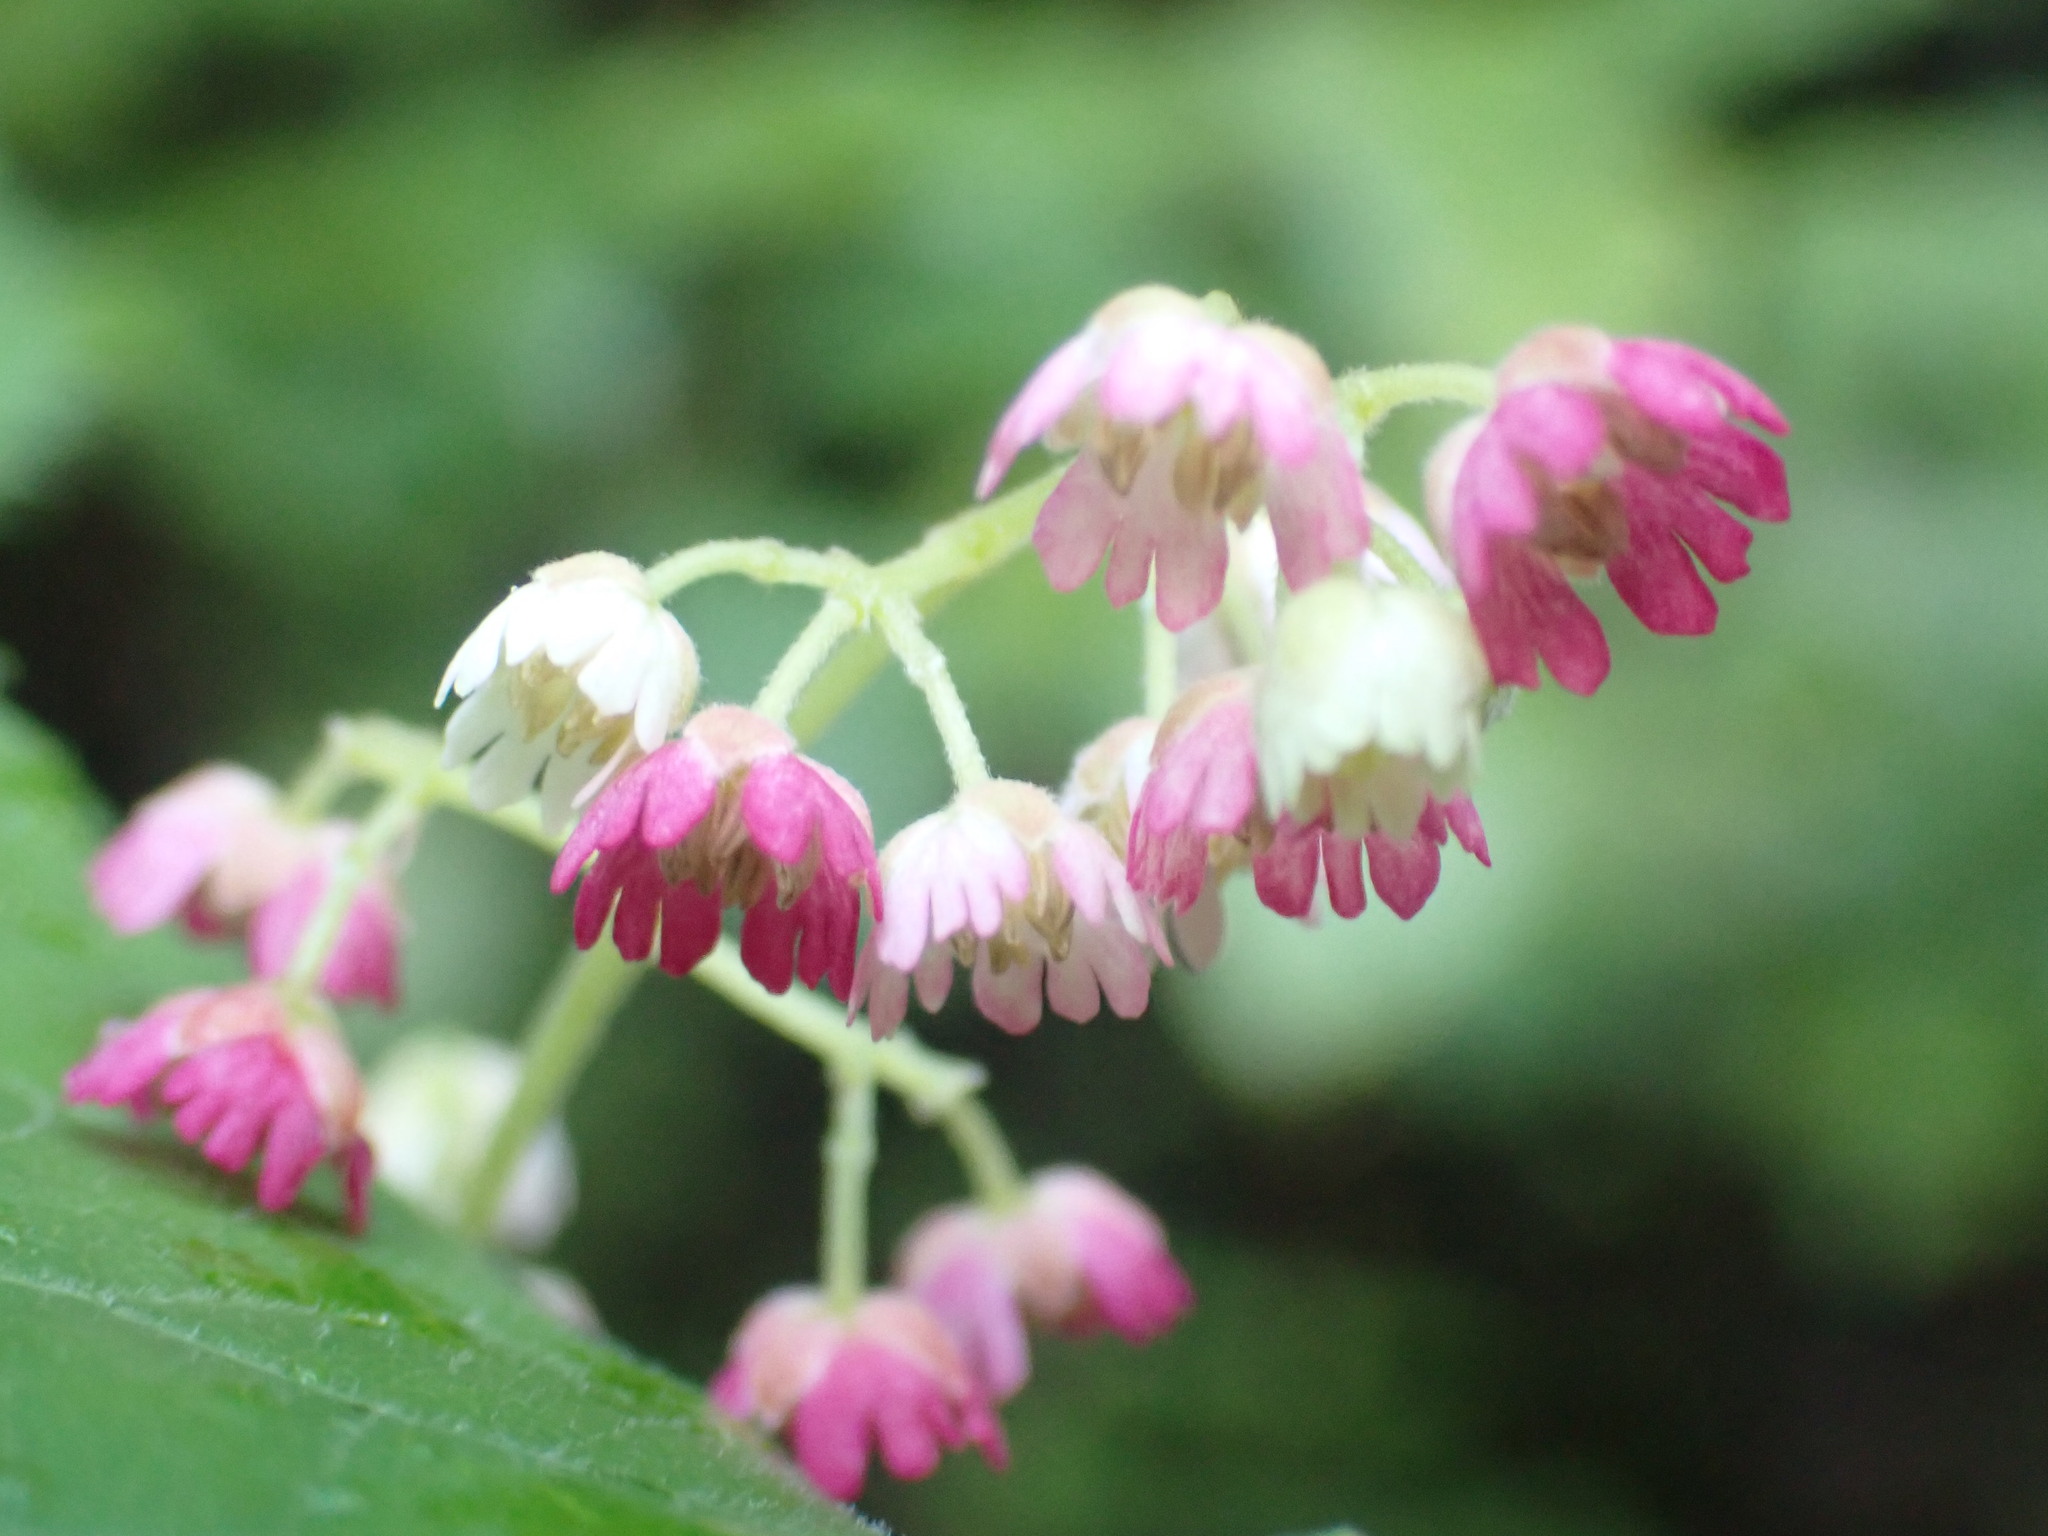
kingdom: Plantae
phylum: Tracheophyta
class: Magnoliopsida
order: Oxalidales
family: Elaeocarpaceae
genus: Aristotelia
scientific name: Aristotelia serrata
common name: New zealand wineberry
